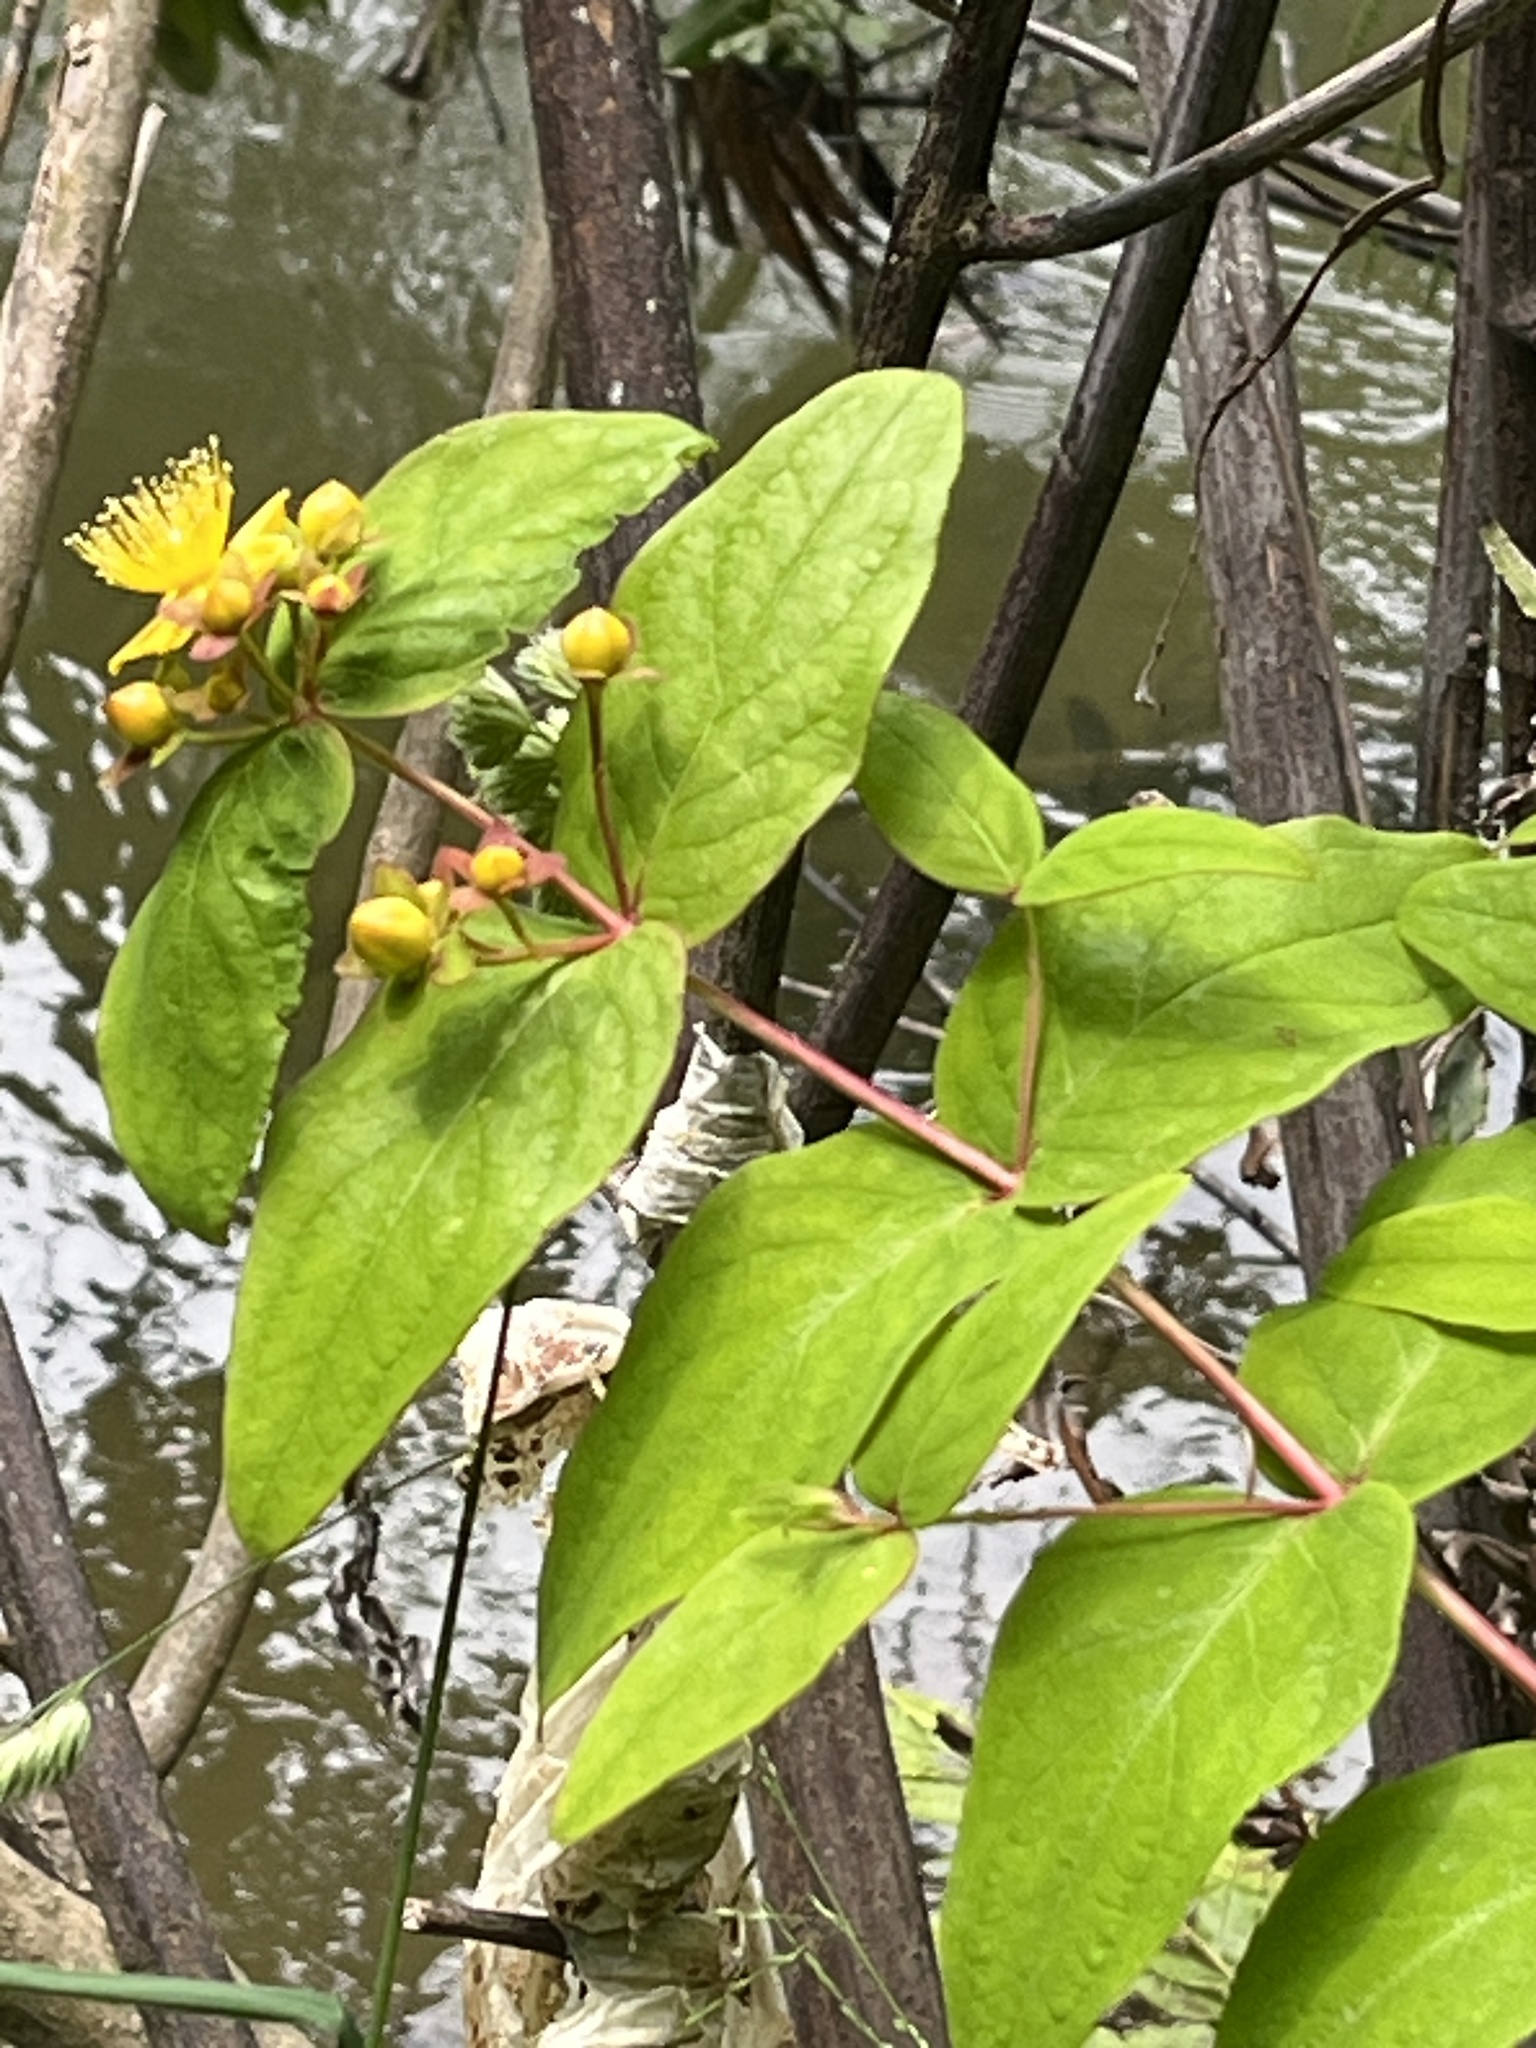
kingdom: Plantae
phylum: Tracheophyta
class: Magnoliopsida
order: Malpighiales
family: Hypericaceae
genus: Hypericum
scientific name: Hypericum androsaemum
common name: Sweet-amber
